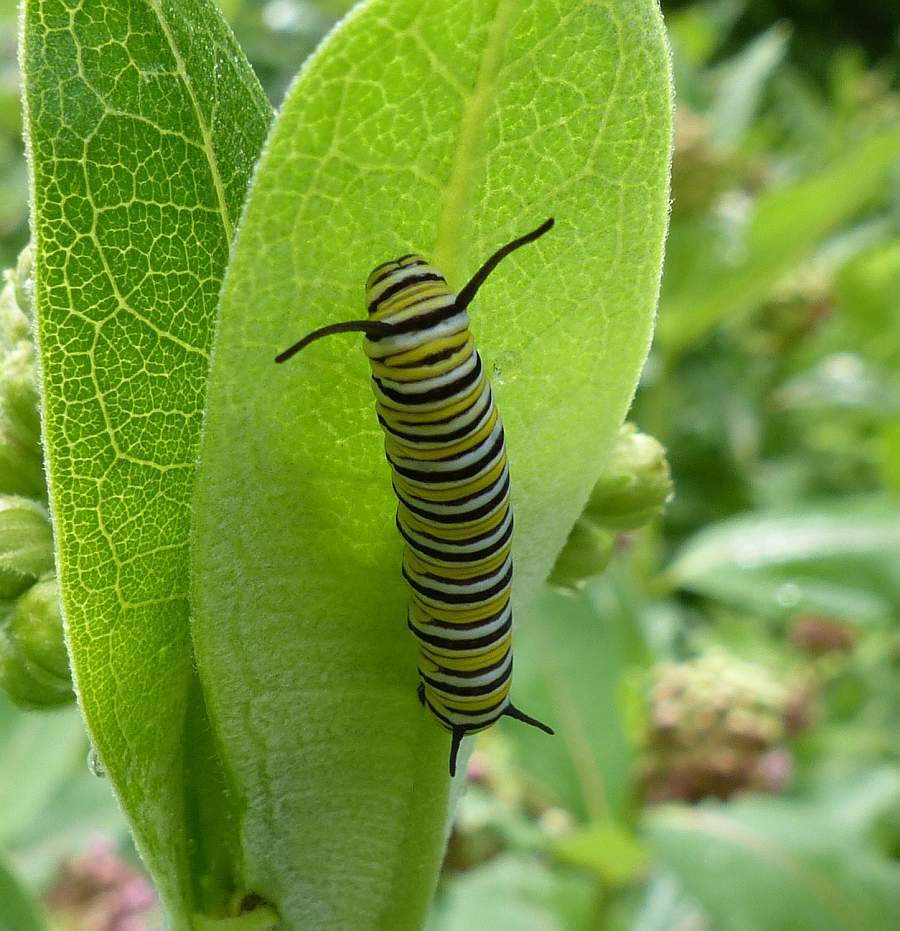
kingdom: Animalia
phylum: Arthropoda
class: Insecta
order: Lepidoptera
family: Nymphalidae
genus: Danaus
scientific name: Danaus plexippus
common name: Monarch
